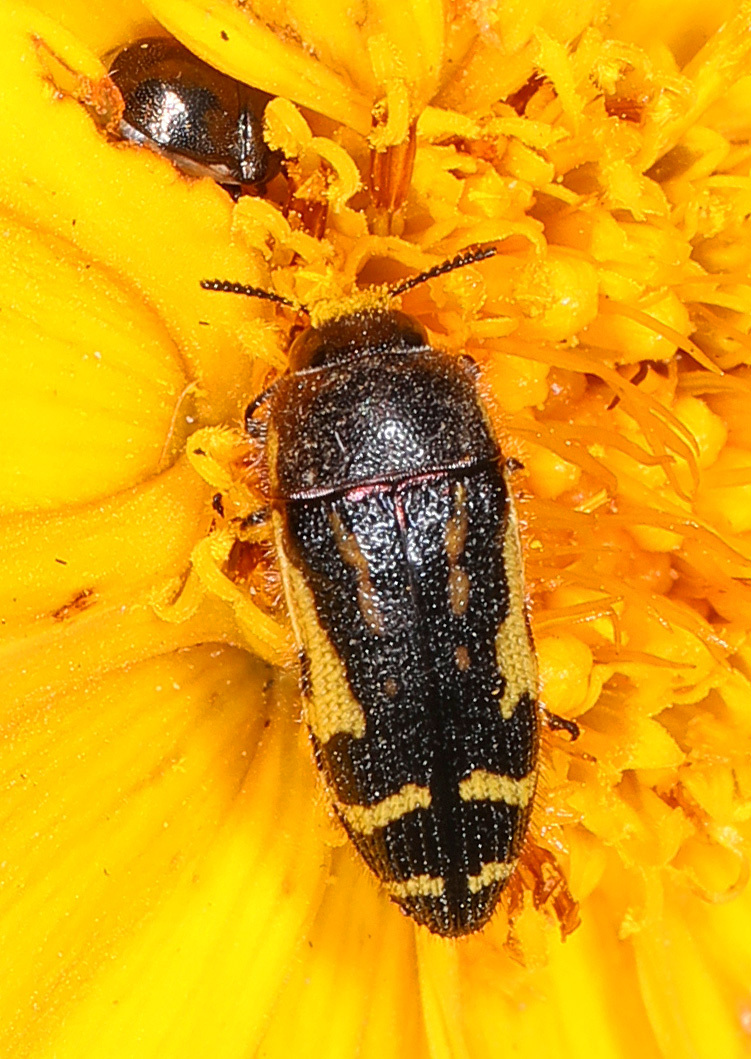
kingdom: Animalia
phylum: Arthropoda
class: Insecta
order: Coleoptera
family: Buprestidae
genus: Acmaeodera
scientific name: Acmaeodera pulchella
